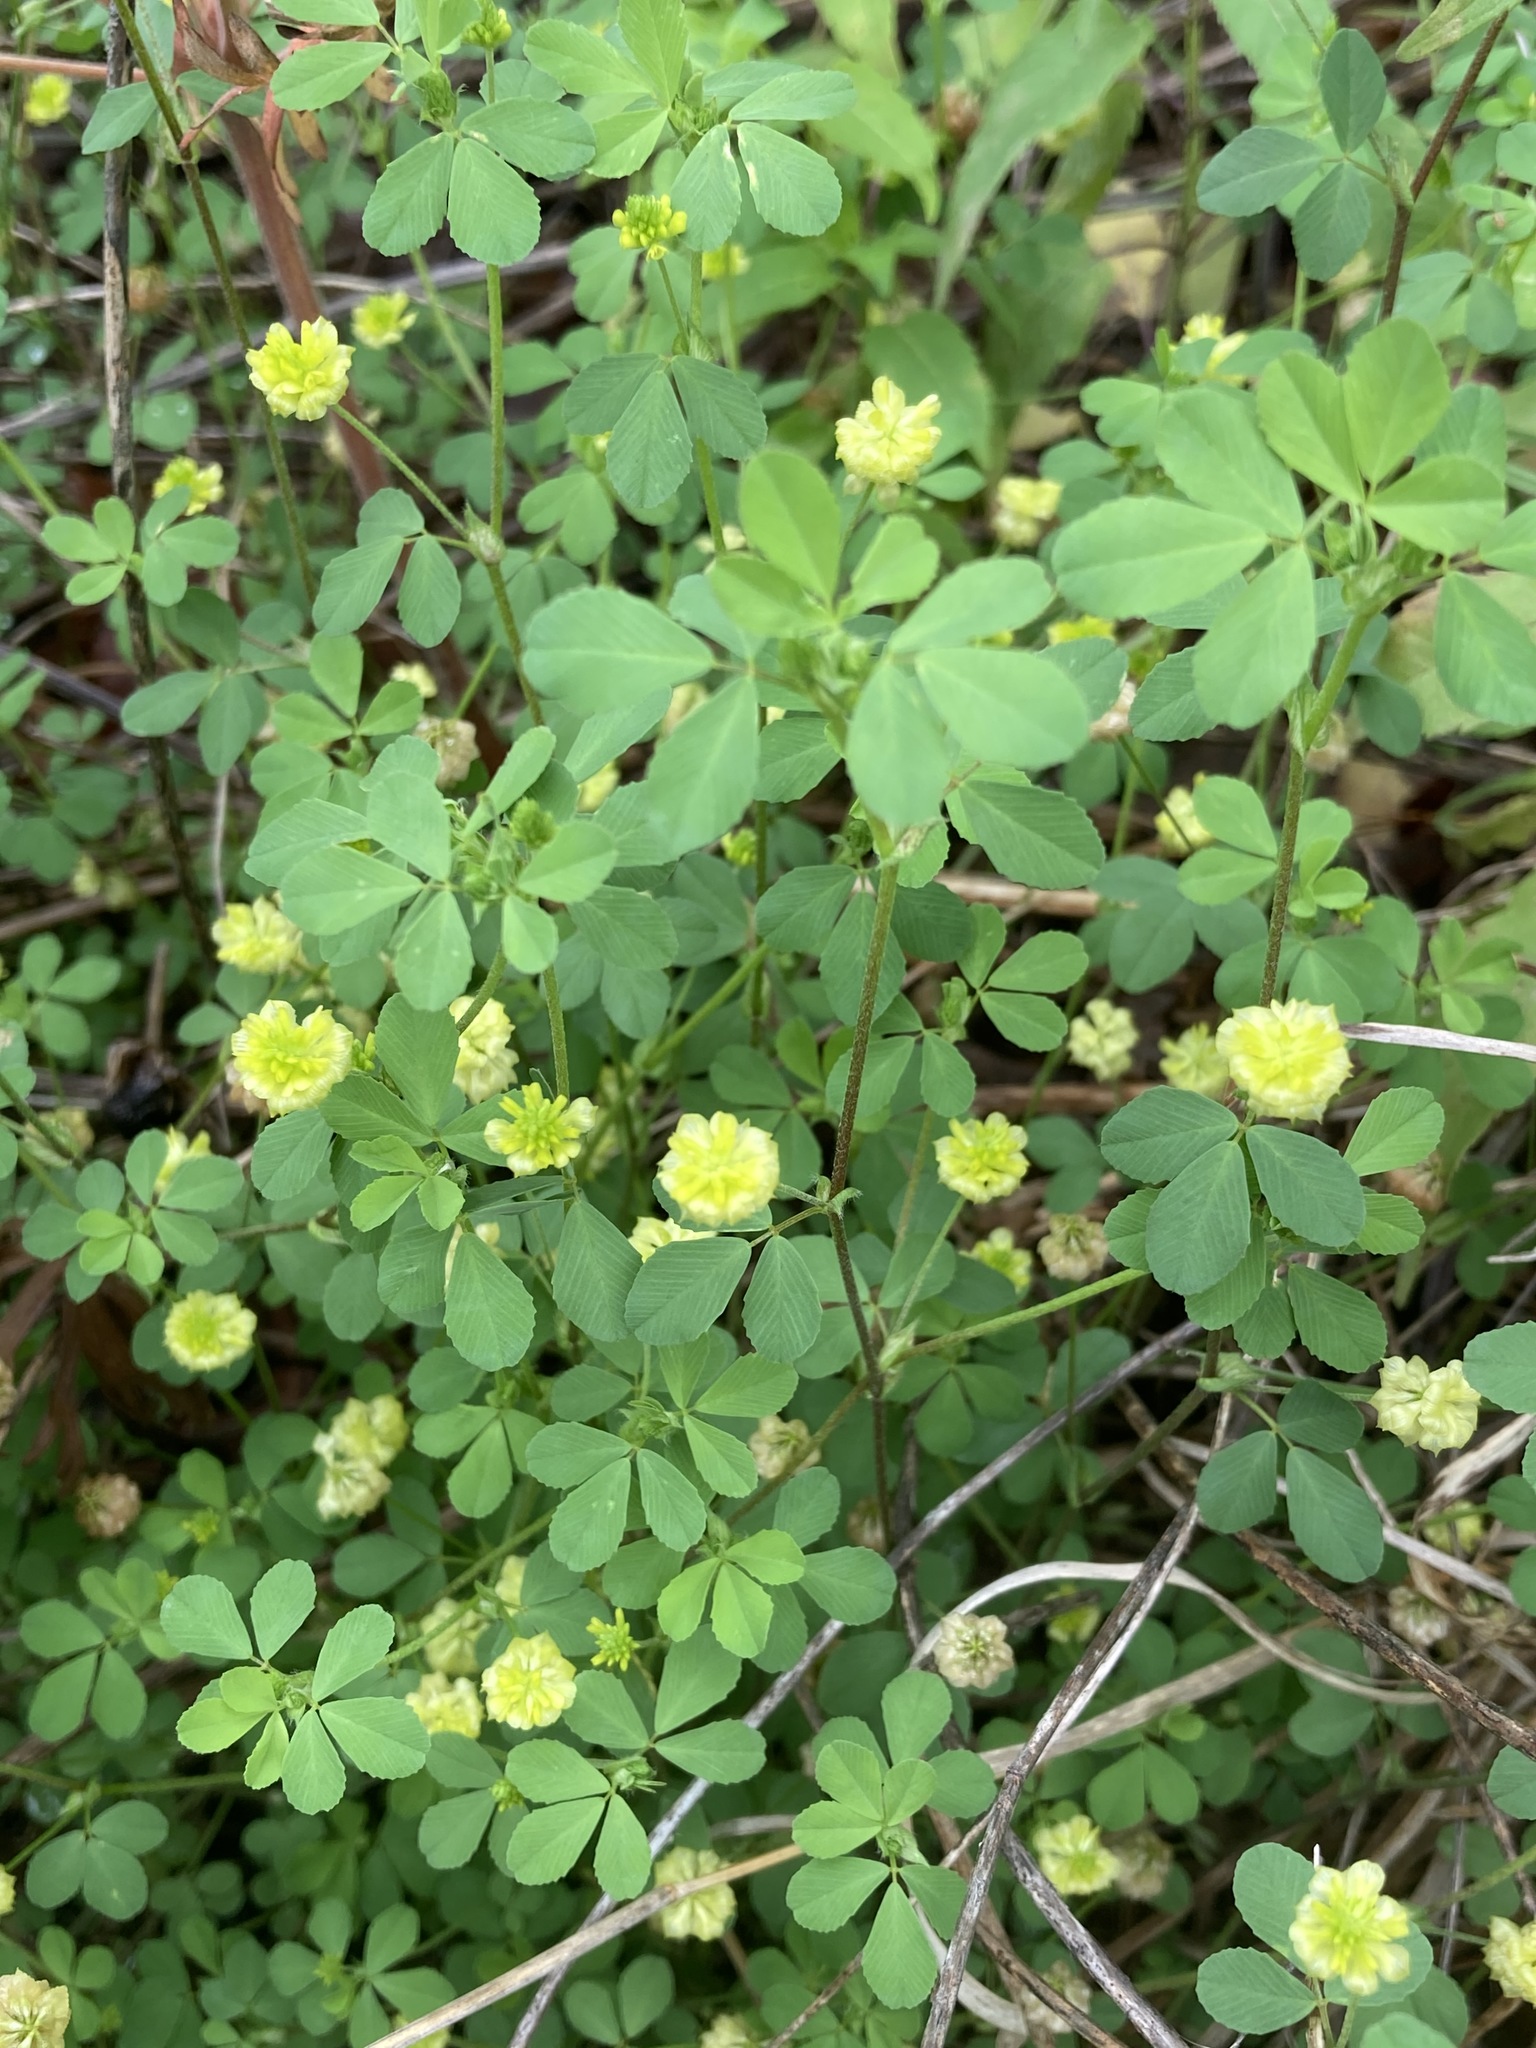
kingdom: Plantae
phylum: Tracheophyta
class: Magnoliopsida
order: Fabales
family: Fabaceae
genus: Trifolium
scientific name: Trifolium dubium
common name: Suckling clover
